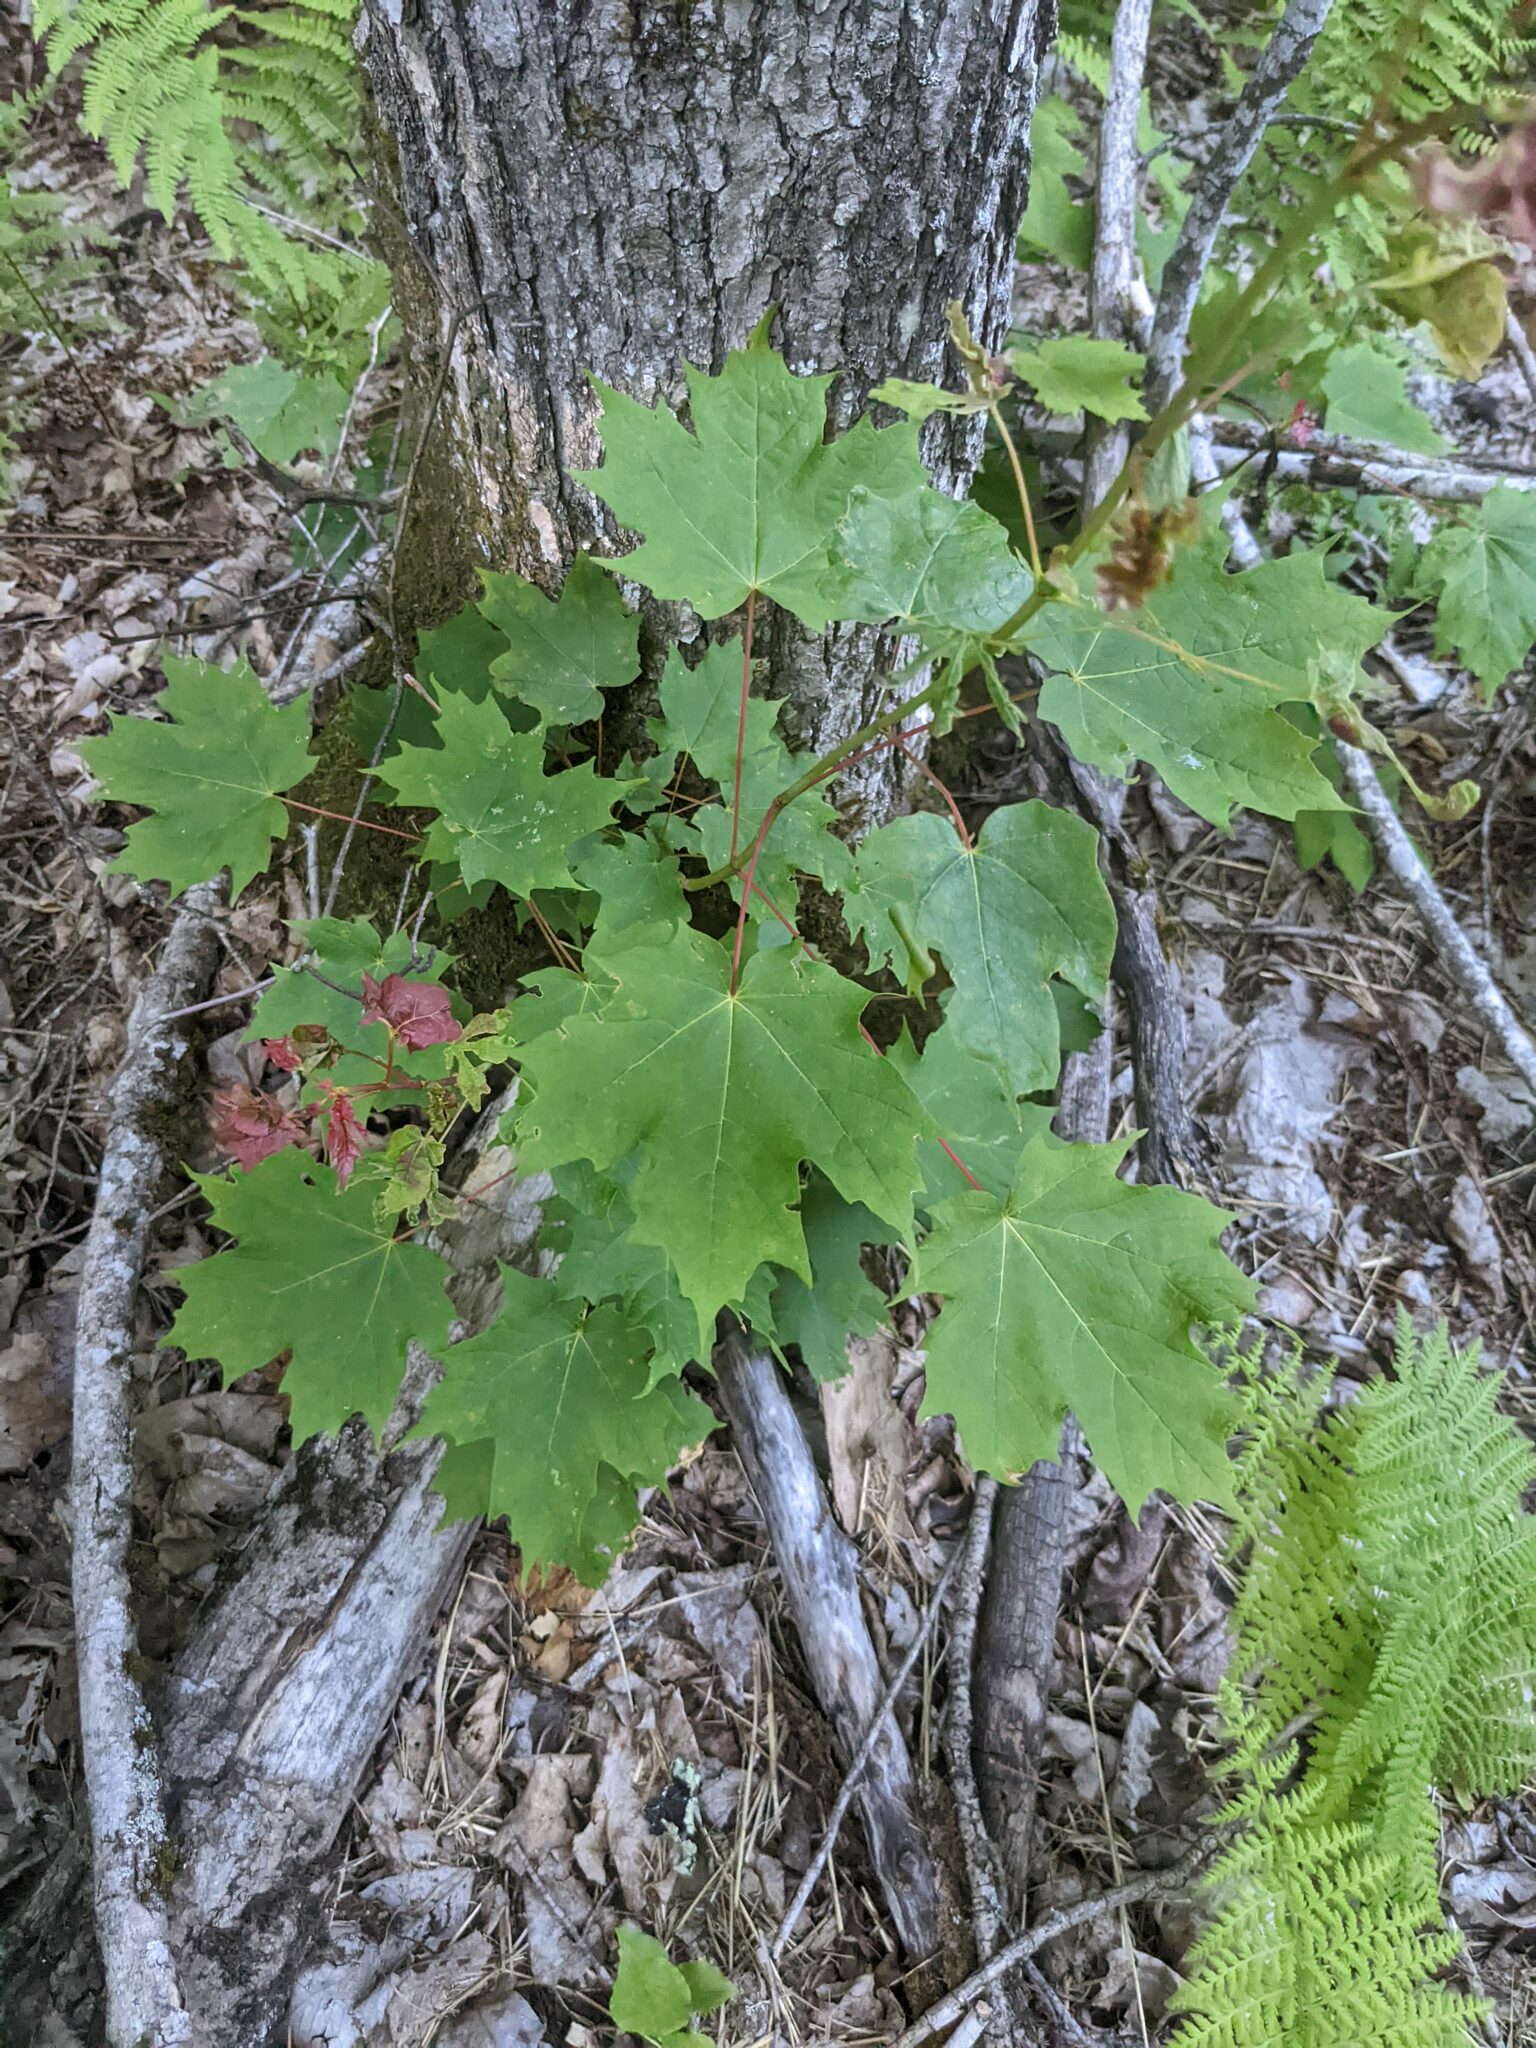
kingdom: Plantae
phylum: Tracheophyta
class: Magnoliopsida
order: Sapindales
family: Sapindaceae
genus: Acer
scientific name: Acer saccharum
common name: Sugar maple
